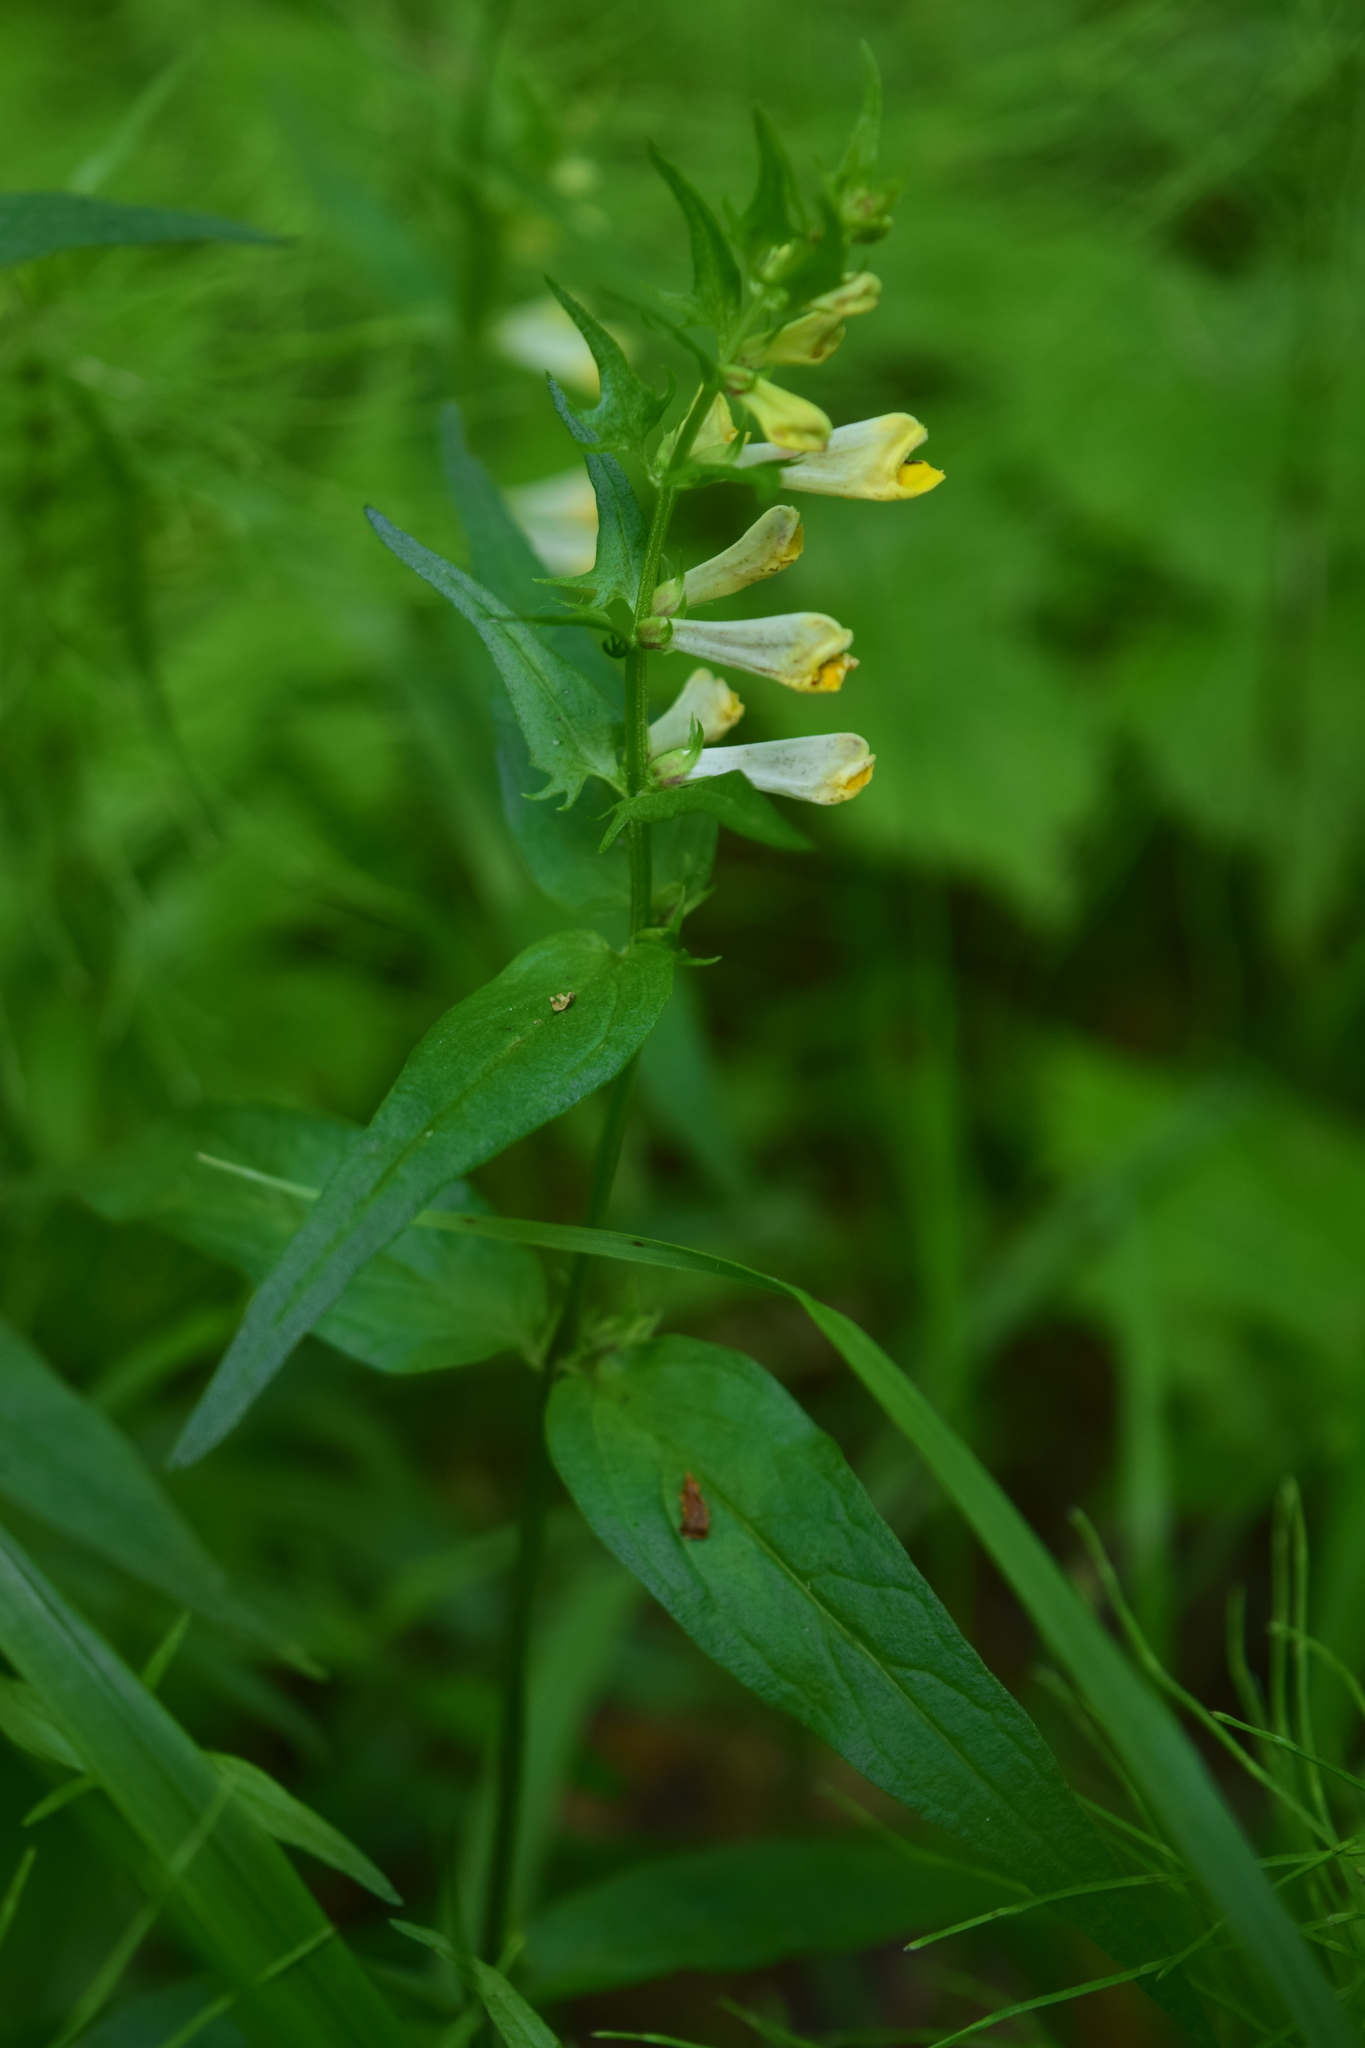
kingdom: Plantae
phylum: Tracheophyta
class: Magnoliopsida
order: Lamiales
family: Orobanchaceae
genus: Melampyrum
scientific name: Melampyrum pratense
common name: Common cow-wheat
